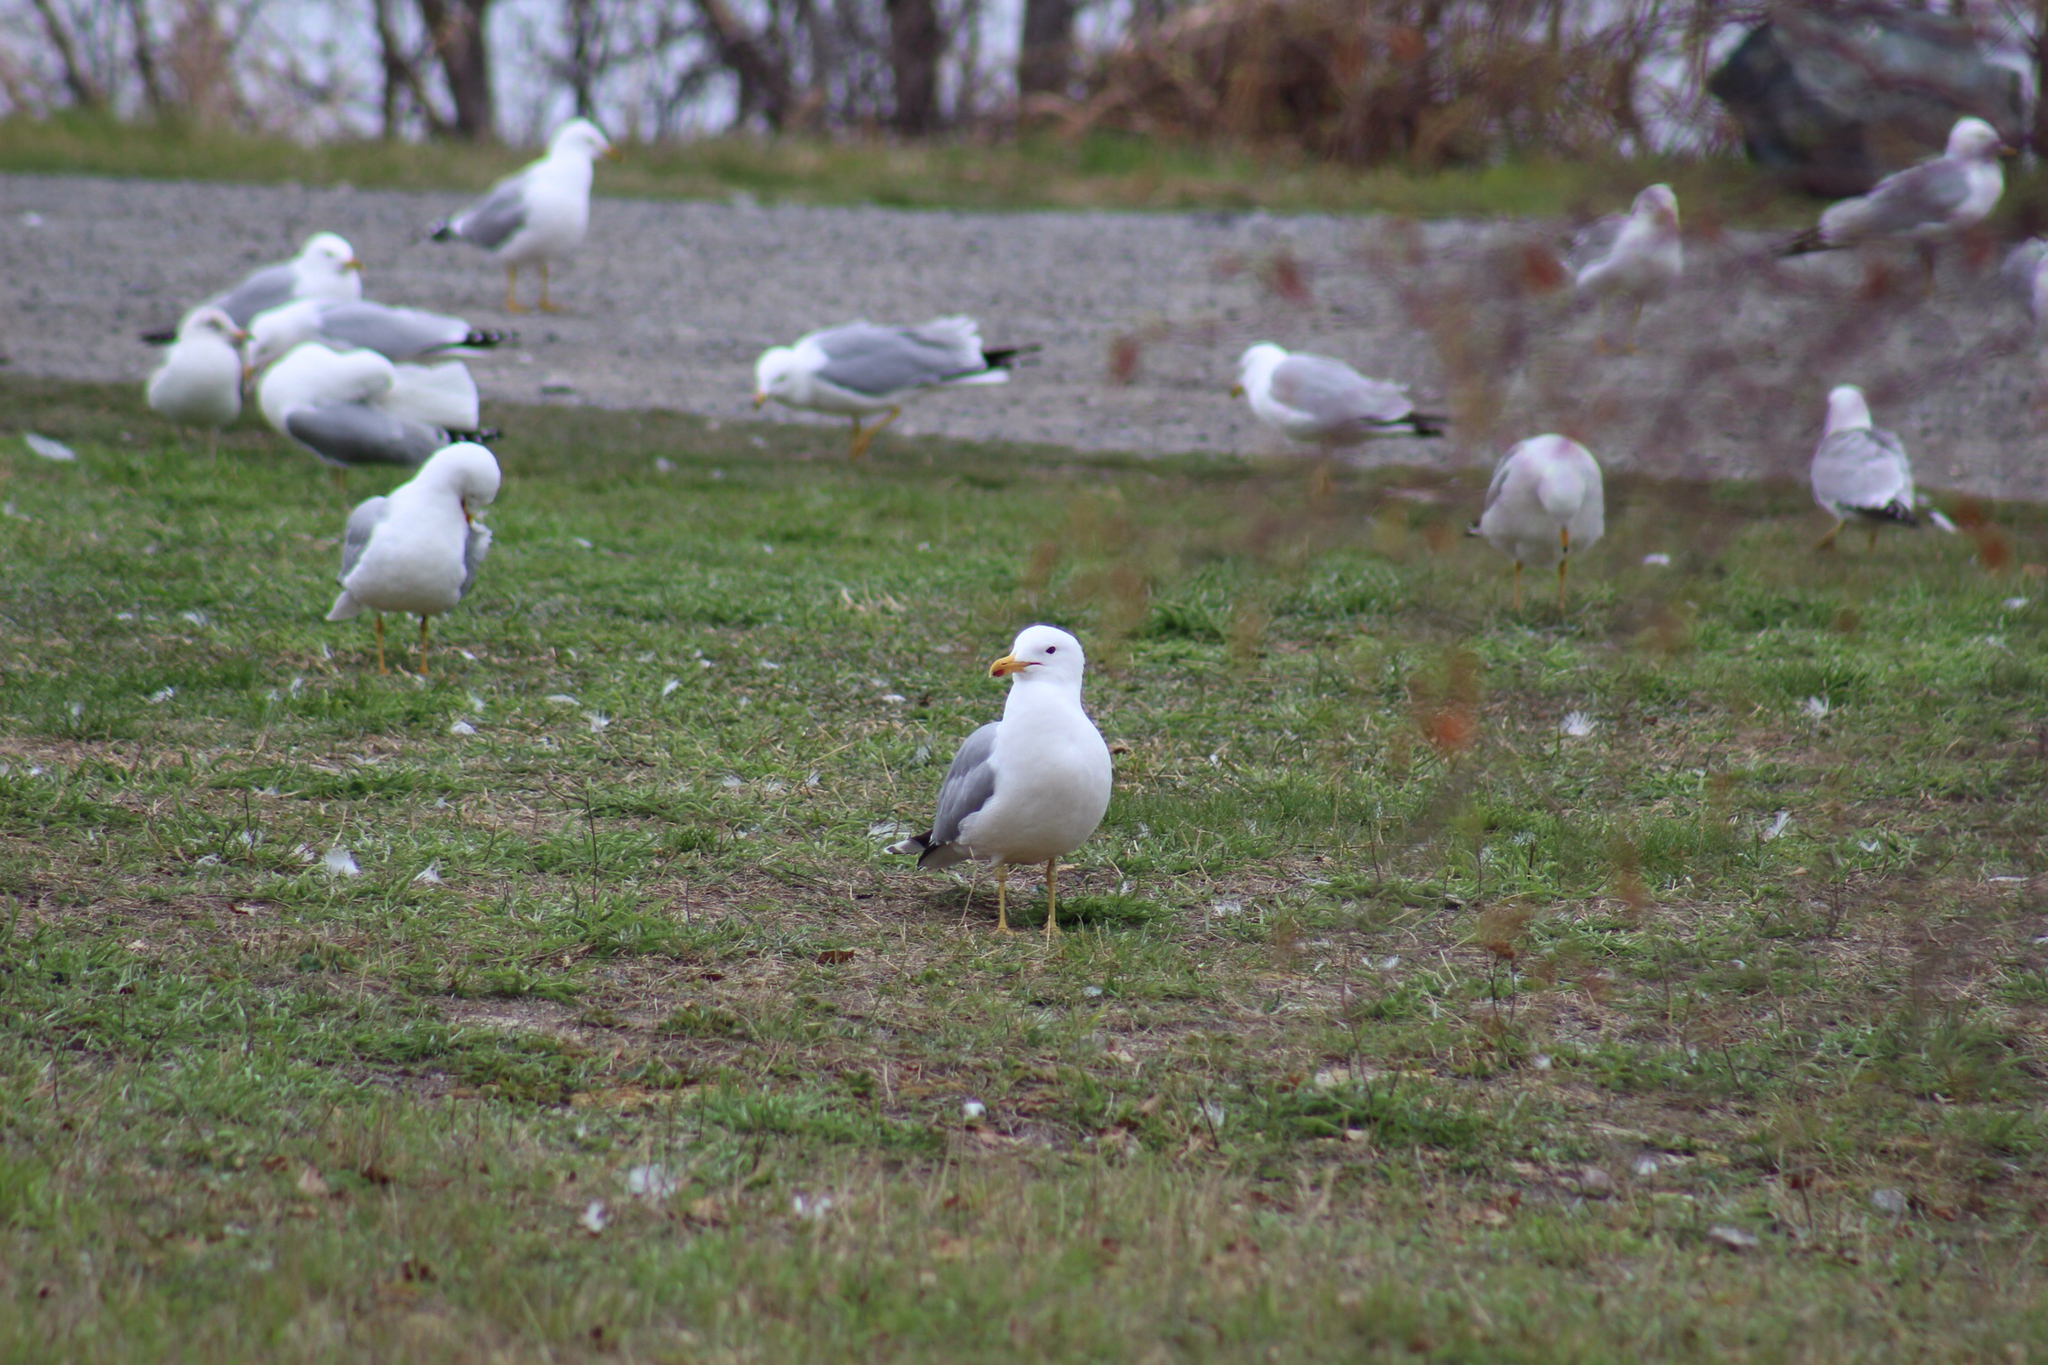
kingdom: Animalia
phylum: Chordata
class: Aves
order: Charadriiformes
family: Laridae
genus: Larus
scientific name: Larus californicus
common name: California gull
